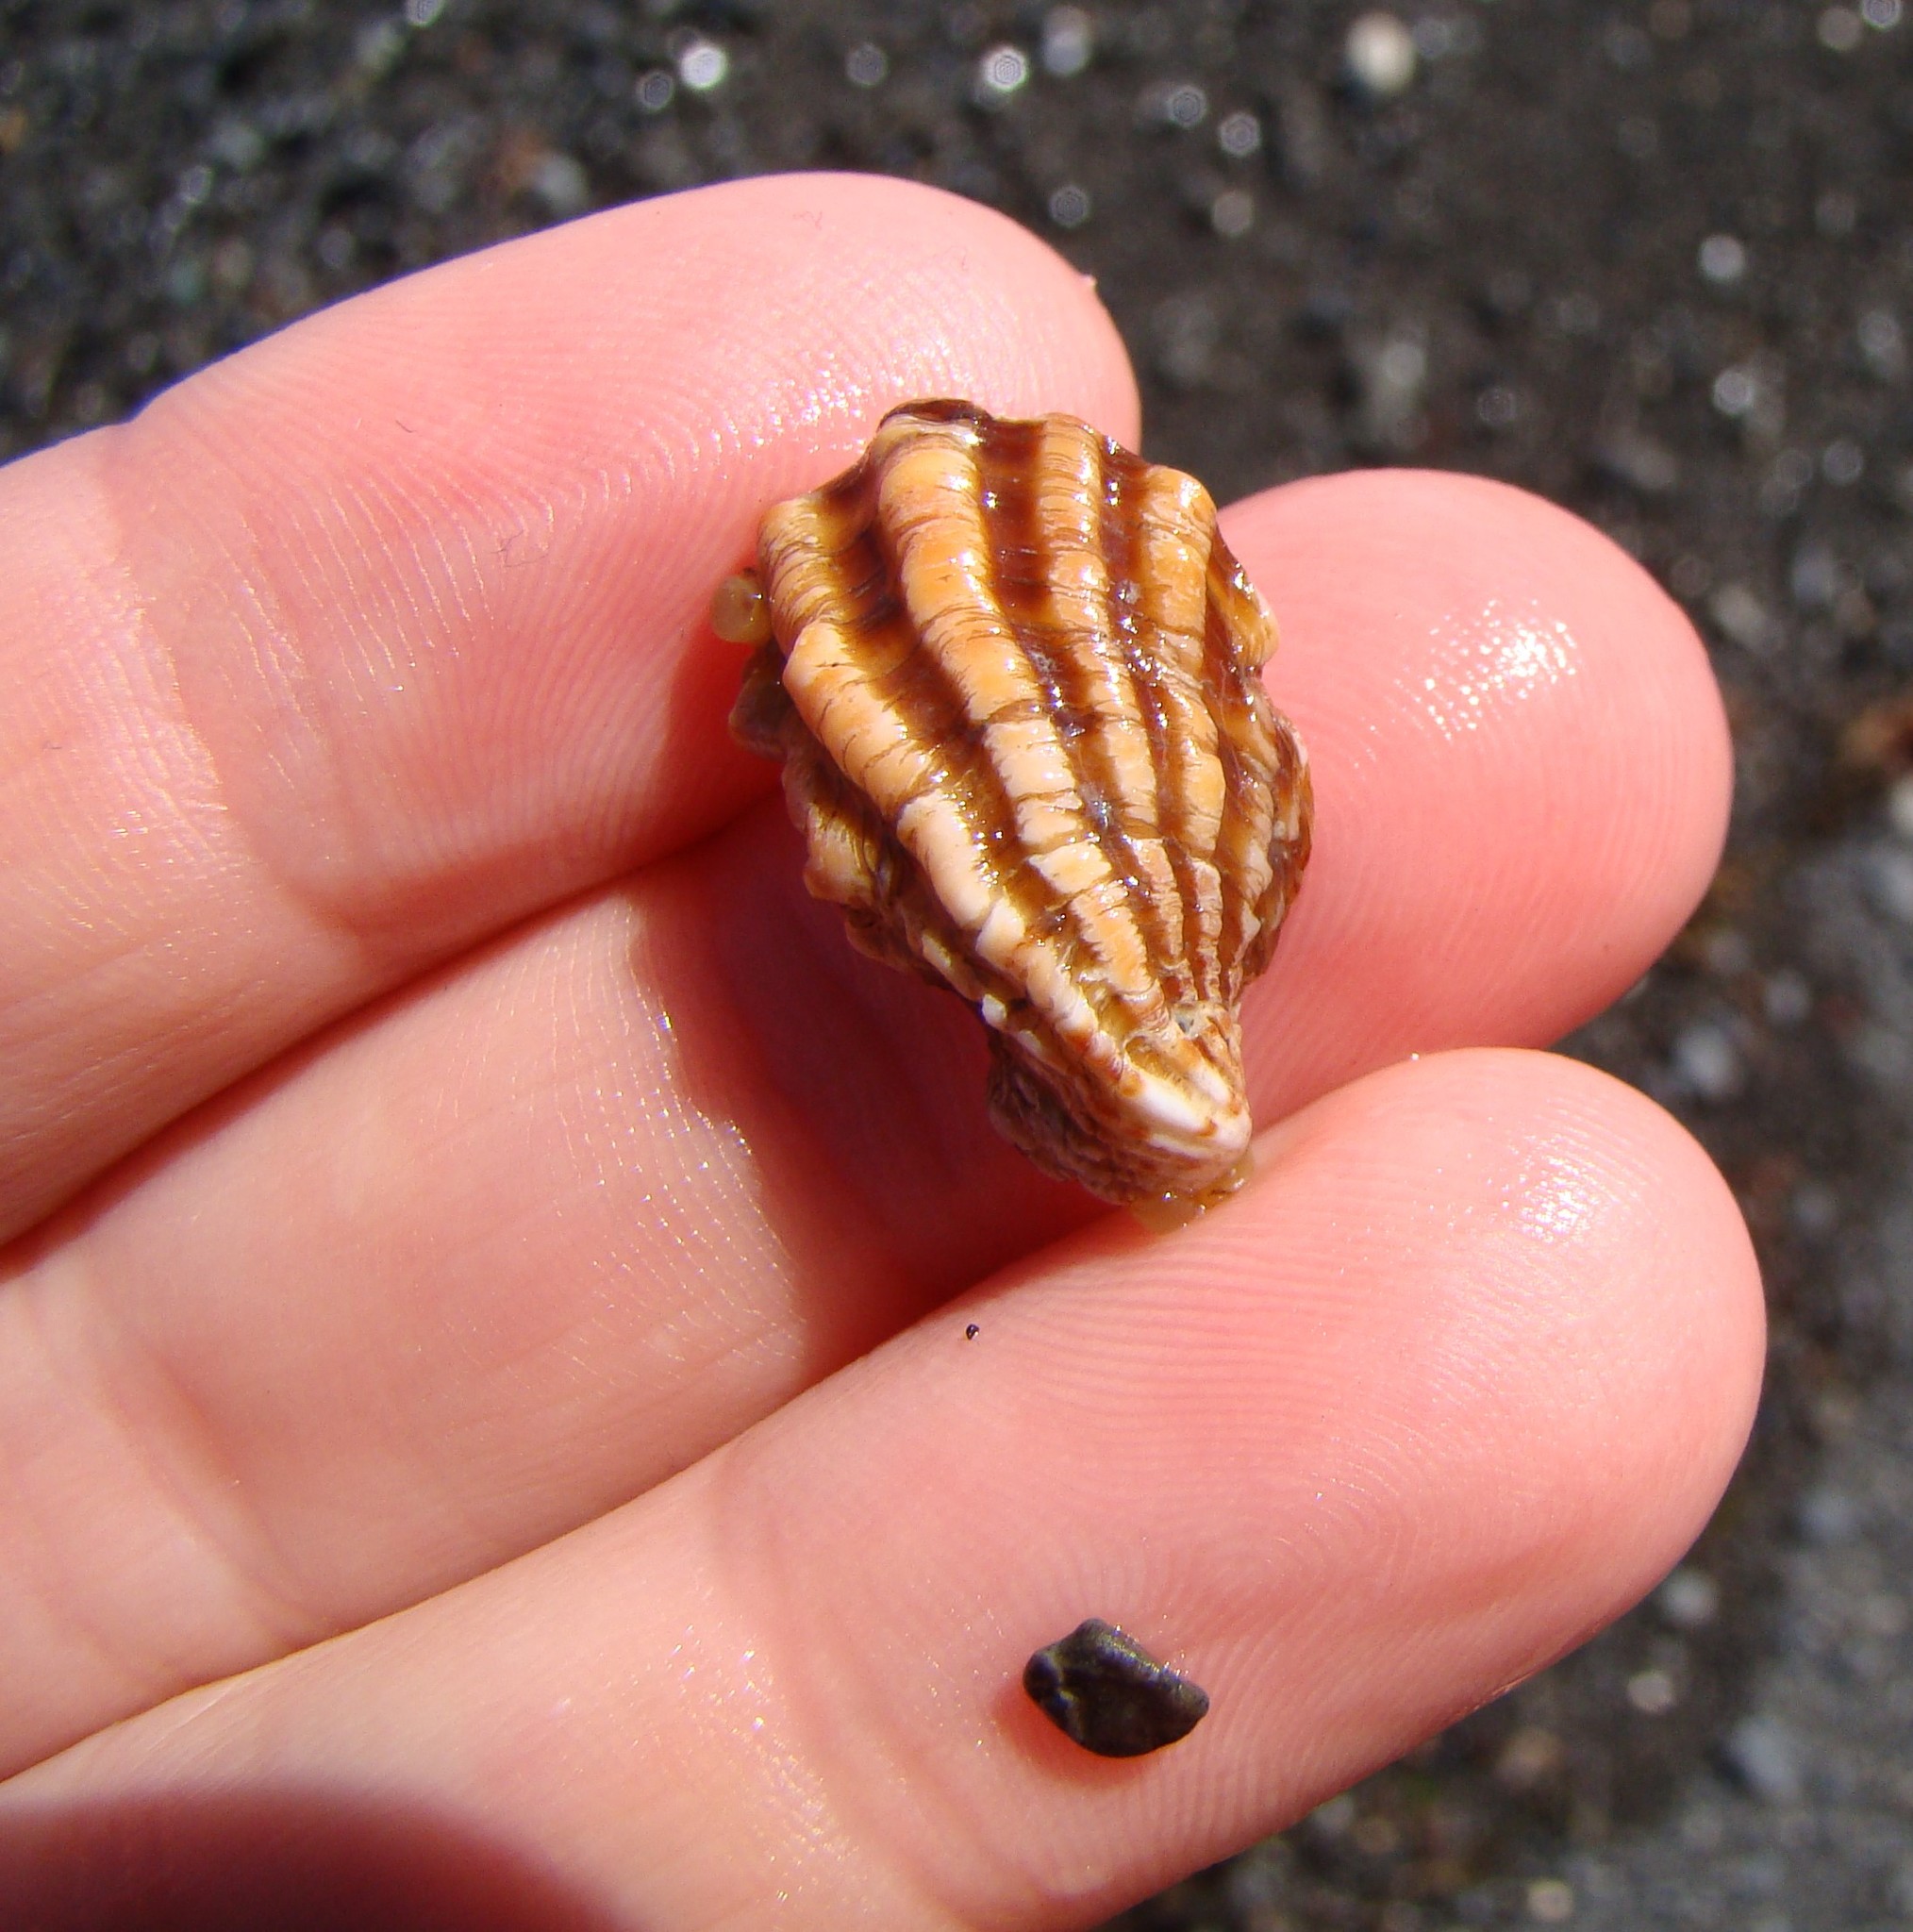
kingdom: Animalia
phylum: Mollusca
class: Bivalvia
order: Carditida
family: Carditidae
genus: Cardita
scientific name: Cardita distorta
